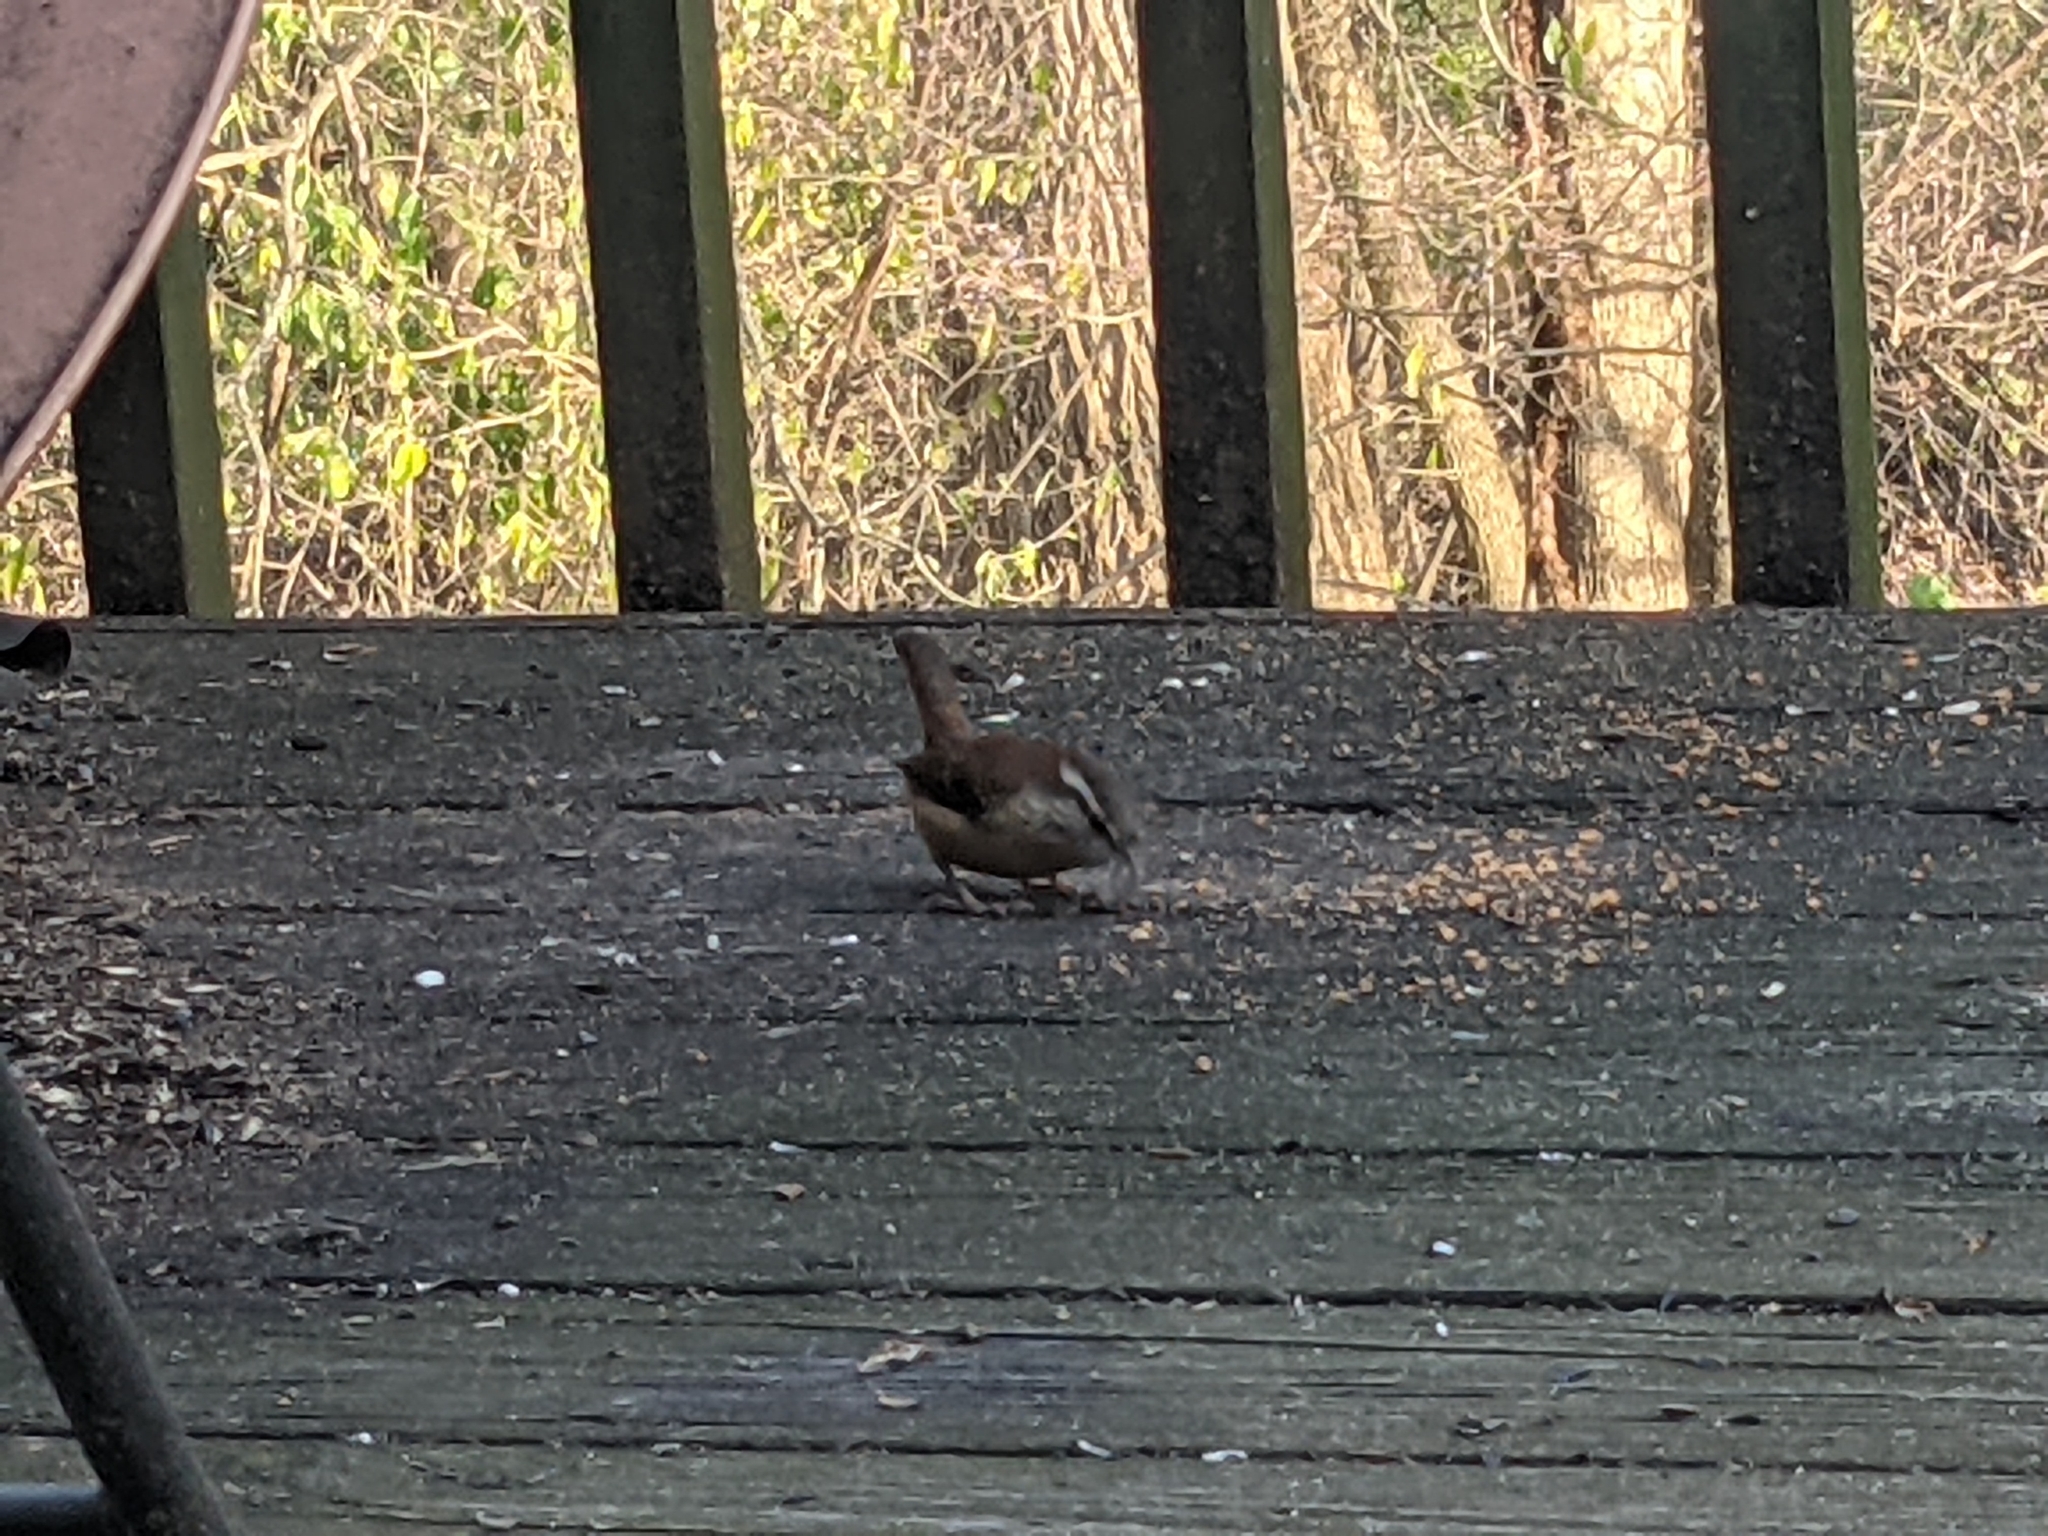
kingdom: Animalia
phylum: Chordata
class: Aves
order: Passeriformes
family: Troglodytidae
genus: Thryothorus
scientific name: Thryothorus ludovicianus
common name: Carolina wren
